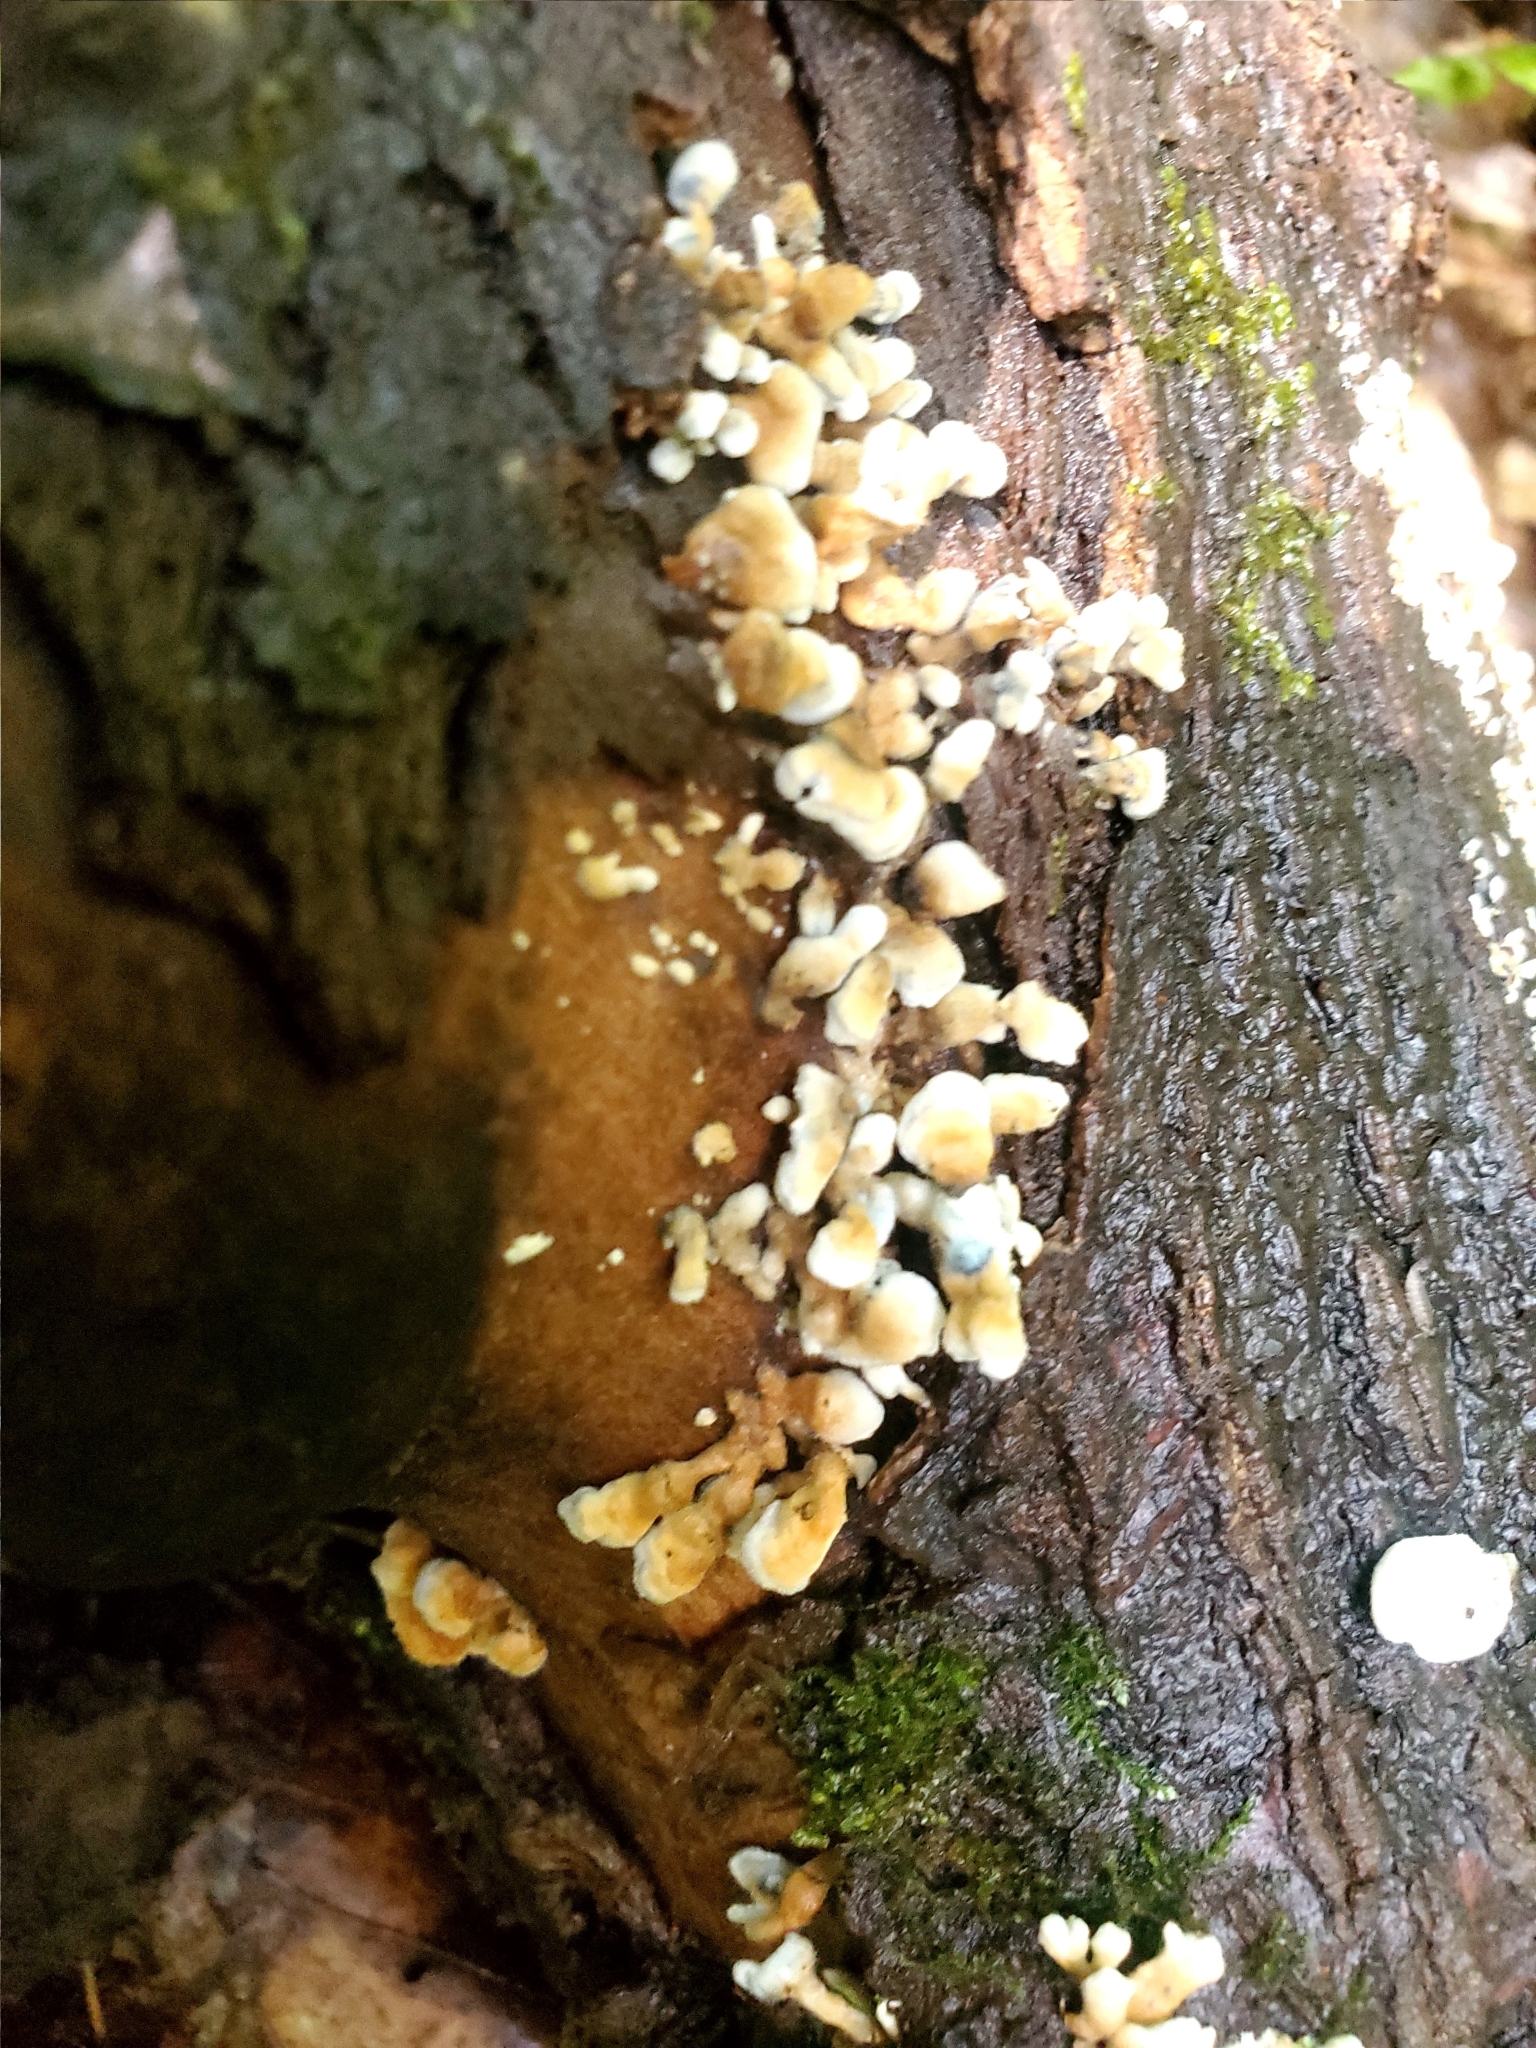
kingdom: Fungi
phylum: Basidiomycota
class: Agaricomycetes
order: Amylocorticiales
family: Amylocorticiaceae
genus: Plicaturopsis
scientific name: Plicaturopsis crispa
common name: Crimped gill
